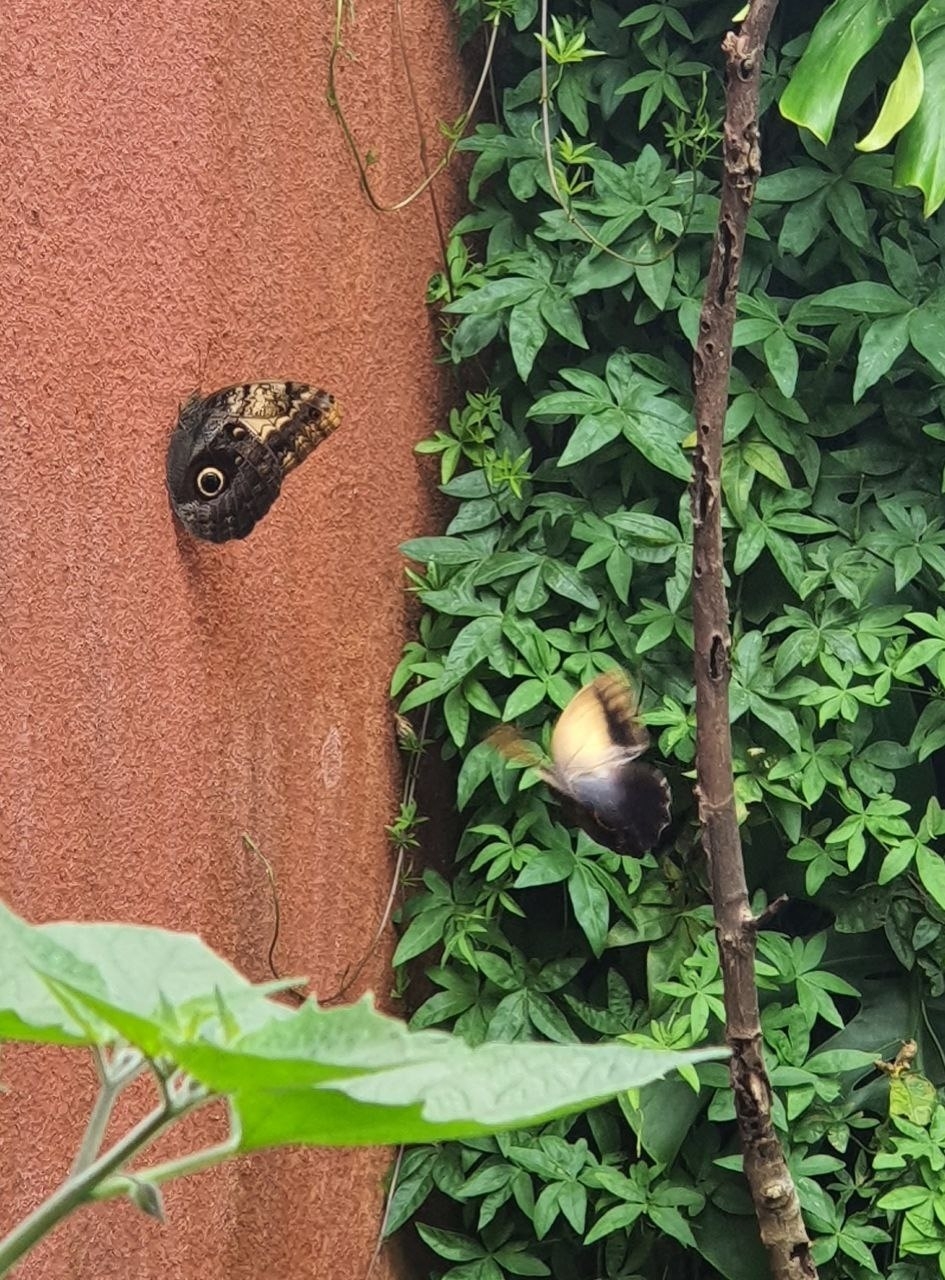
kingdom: Animalia
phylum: Arthropoda
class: Insecta
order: Lepidoptera
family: Nymphalidae
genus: Caligo
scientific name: Caligo telamonius
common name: Pale owl-butterfly
